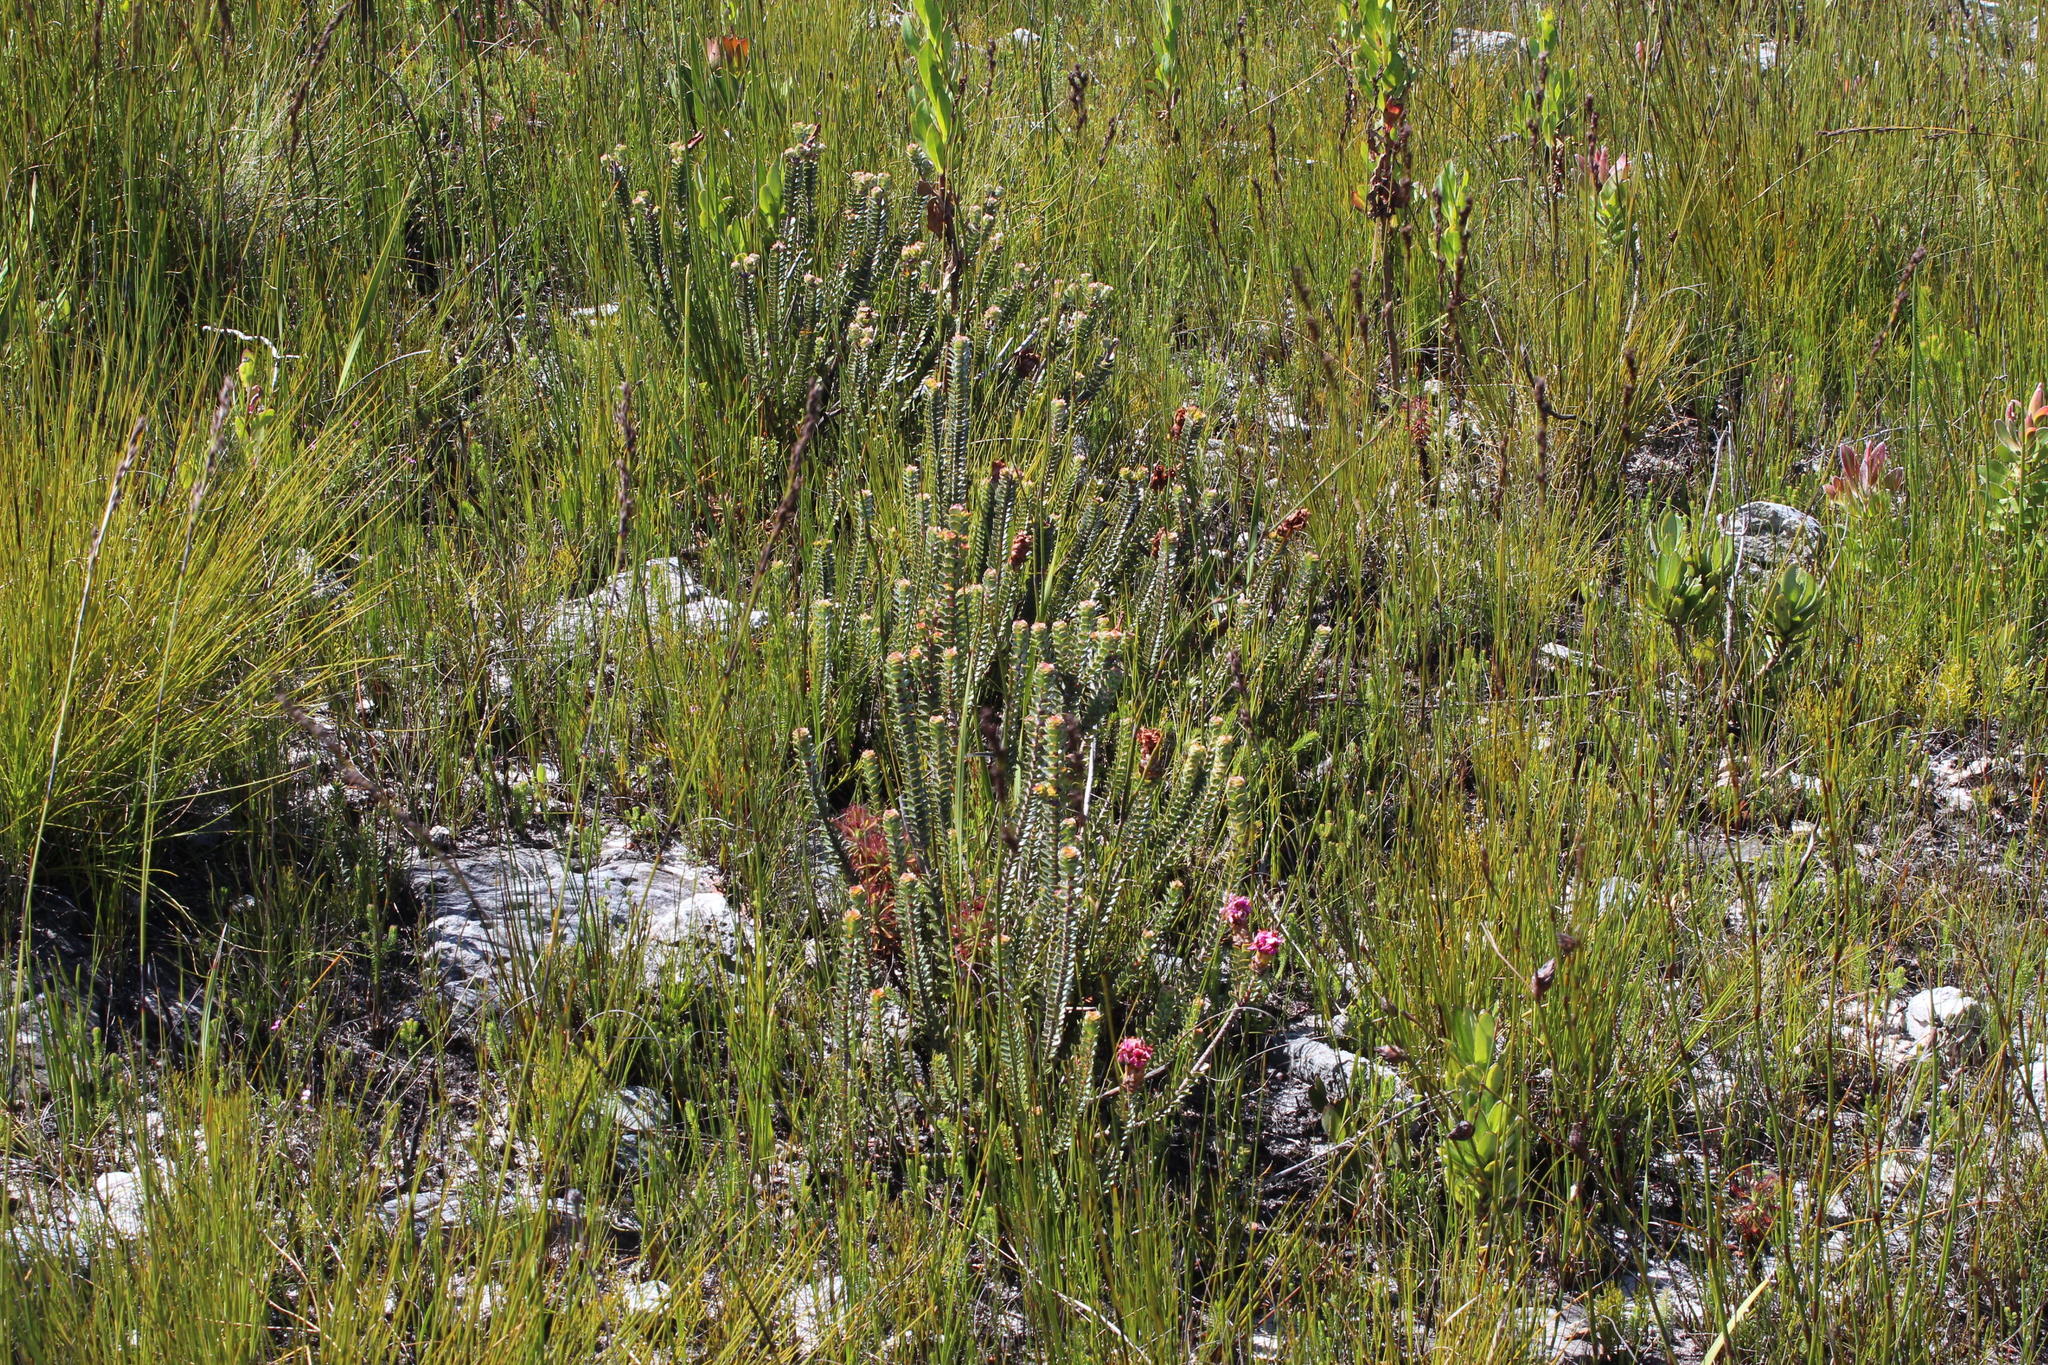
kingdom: Plantae
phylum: Tracheophyta
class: Magnoliopsida
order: Myrtales
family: Penaeaceae
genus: Saltera
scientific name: Saltera sarcocolla
